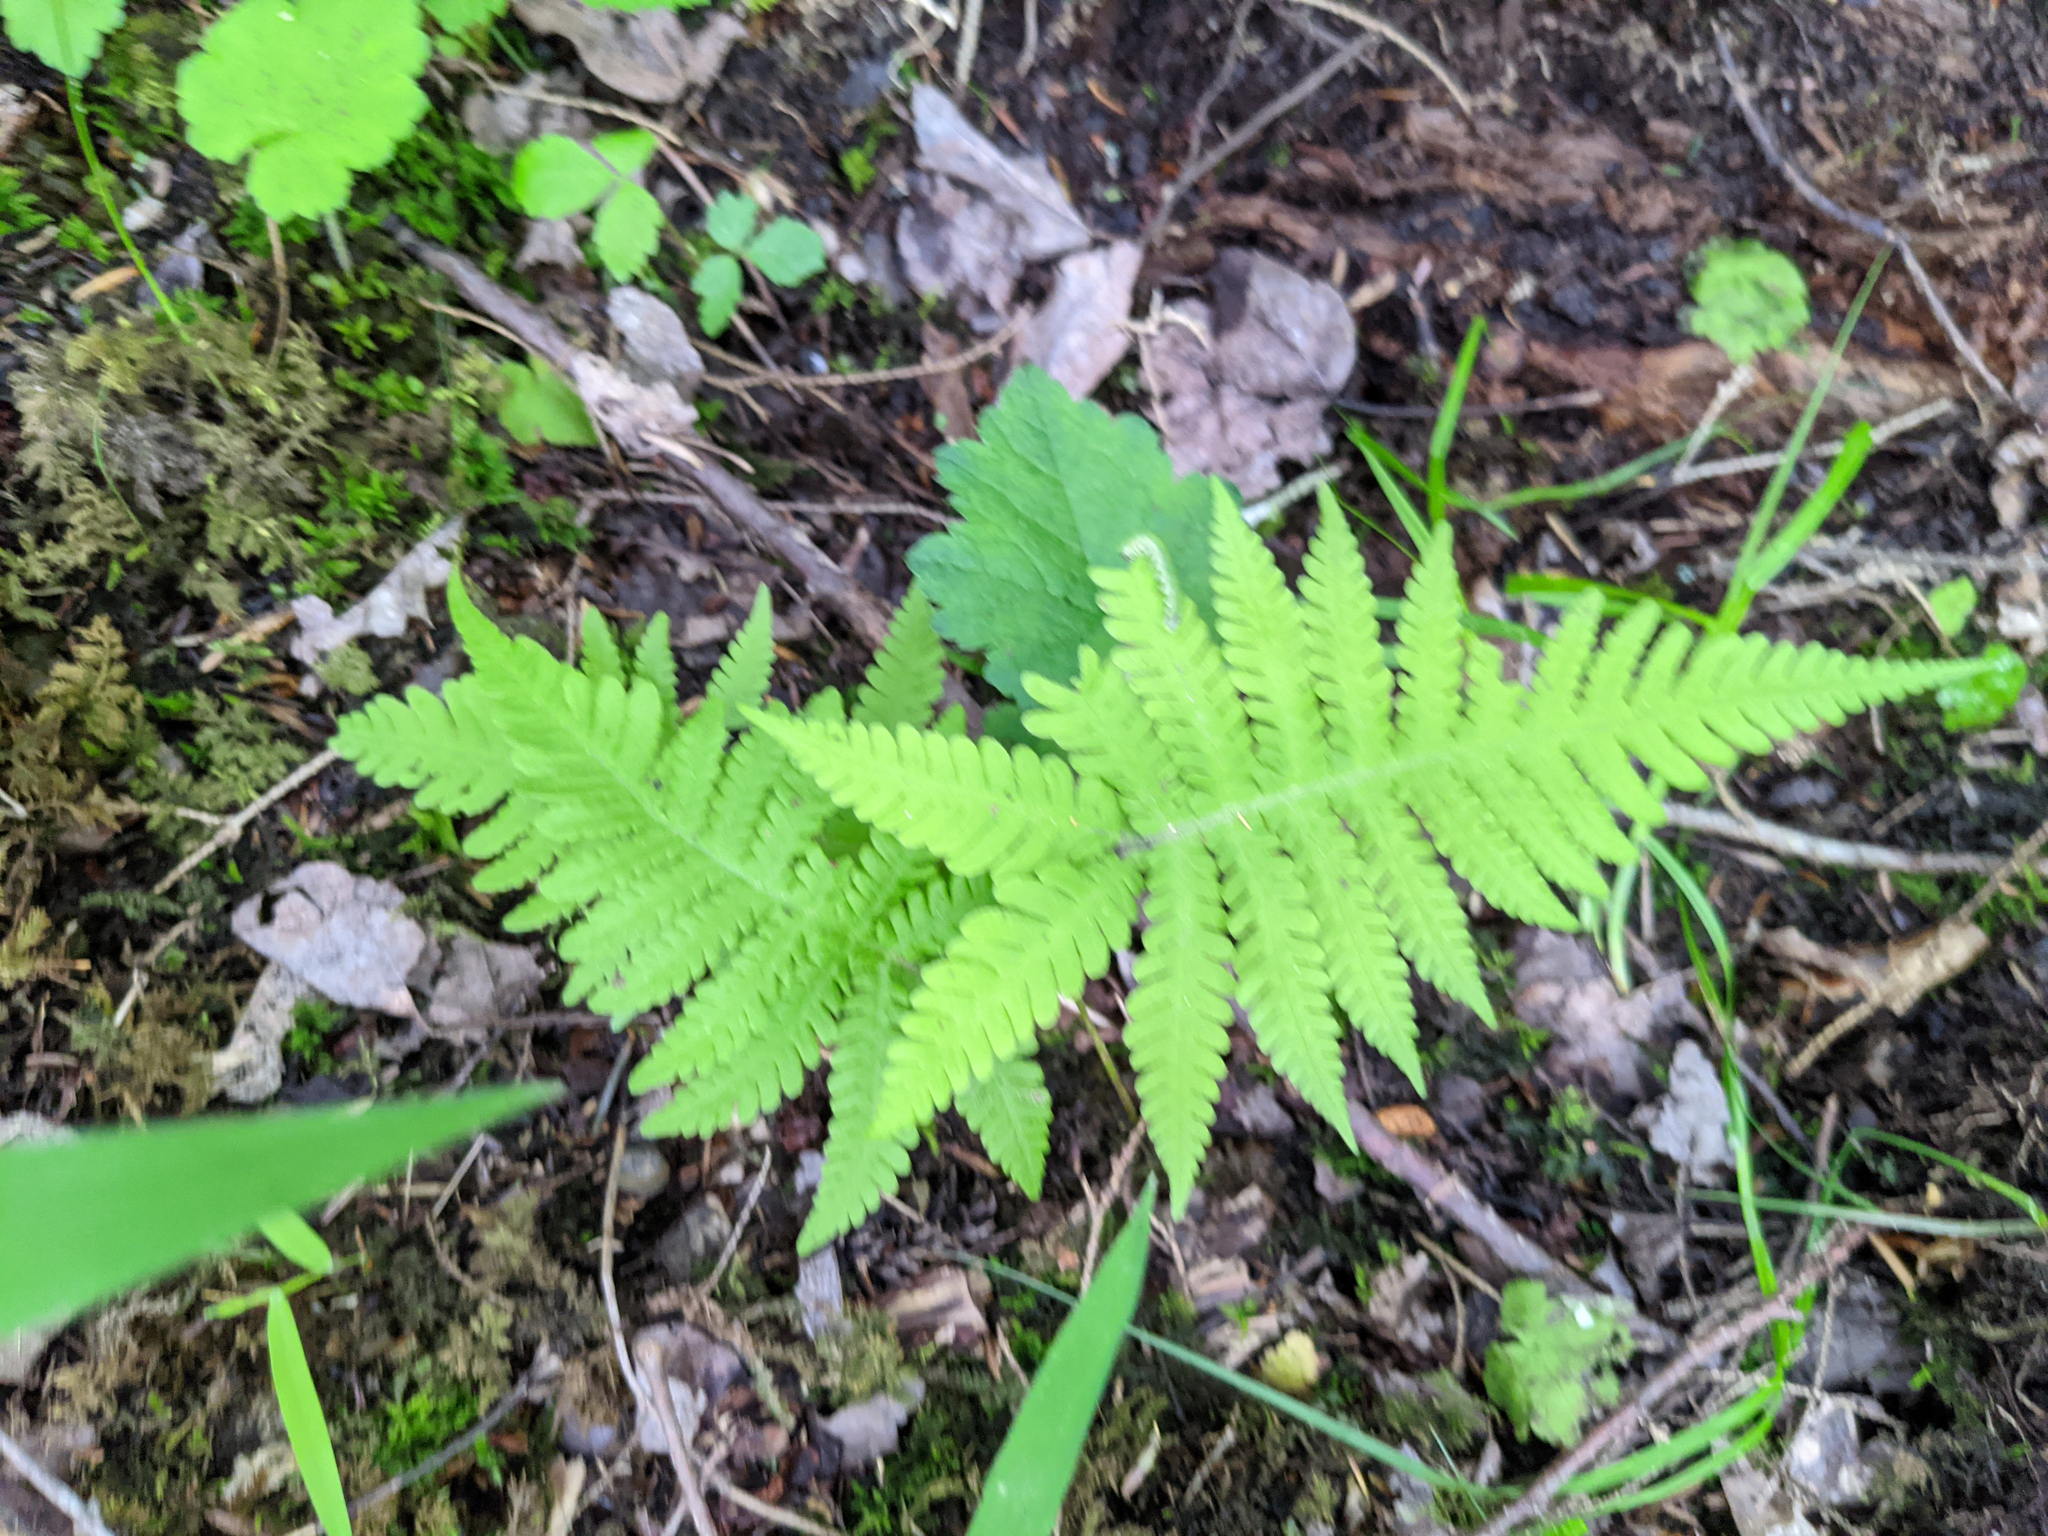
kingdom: Plantae
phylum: Tracheophyta
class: Polypodiopsida
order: Polypodiales
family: Thelypteridaceae
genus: Phegopteris
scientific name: Phegopteris connectilis
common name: Beech fern
